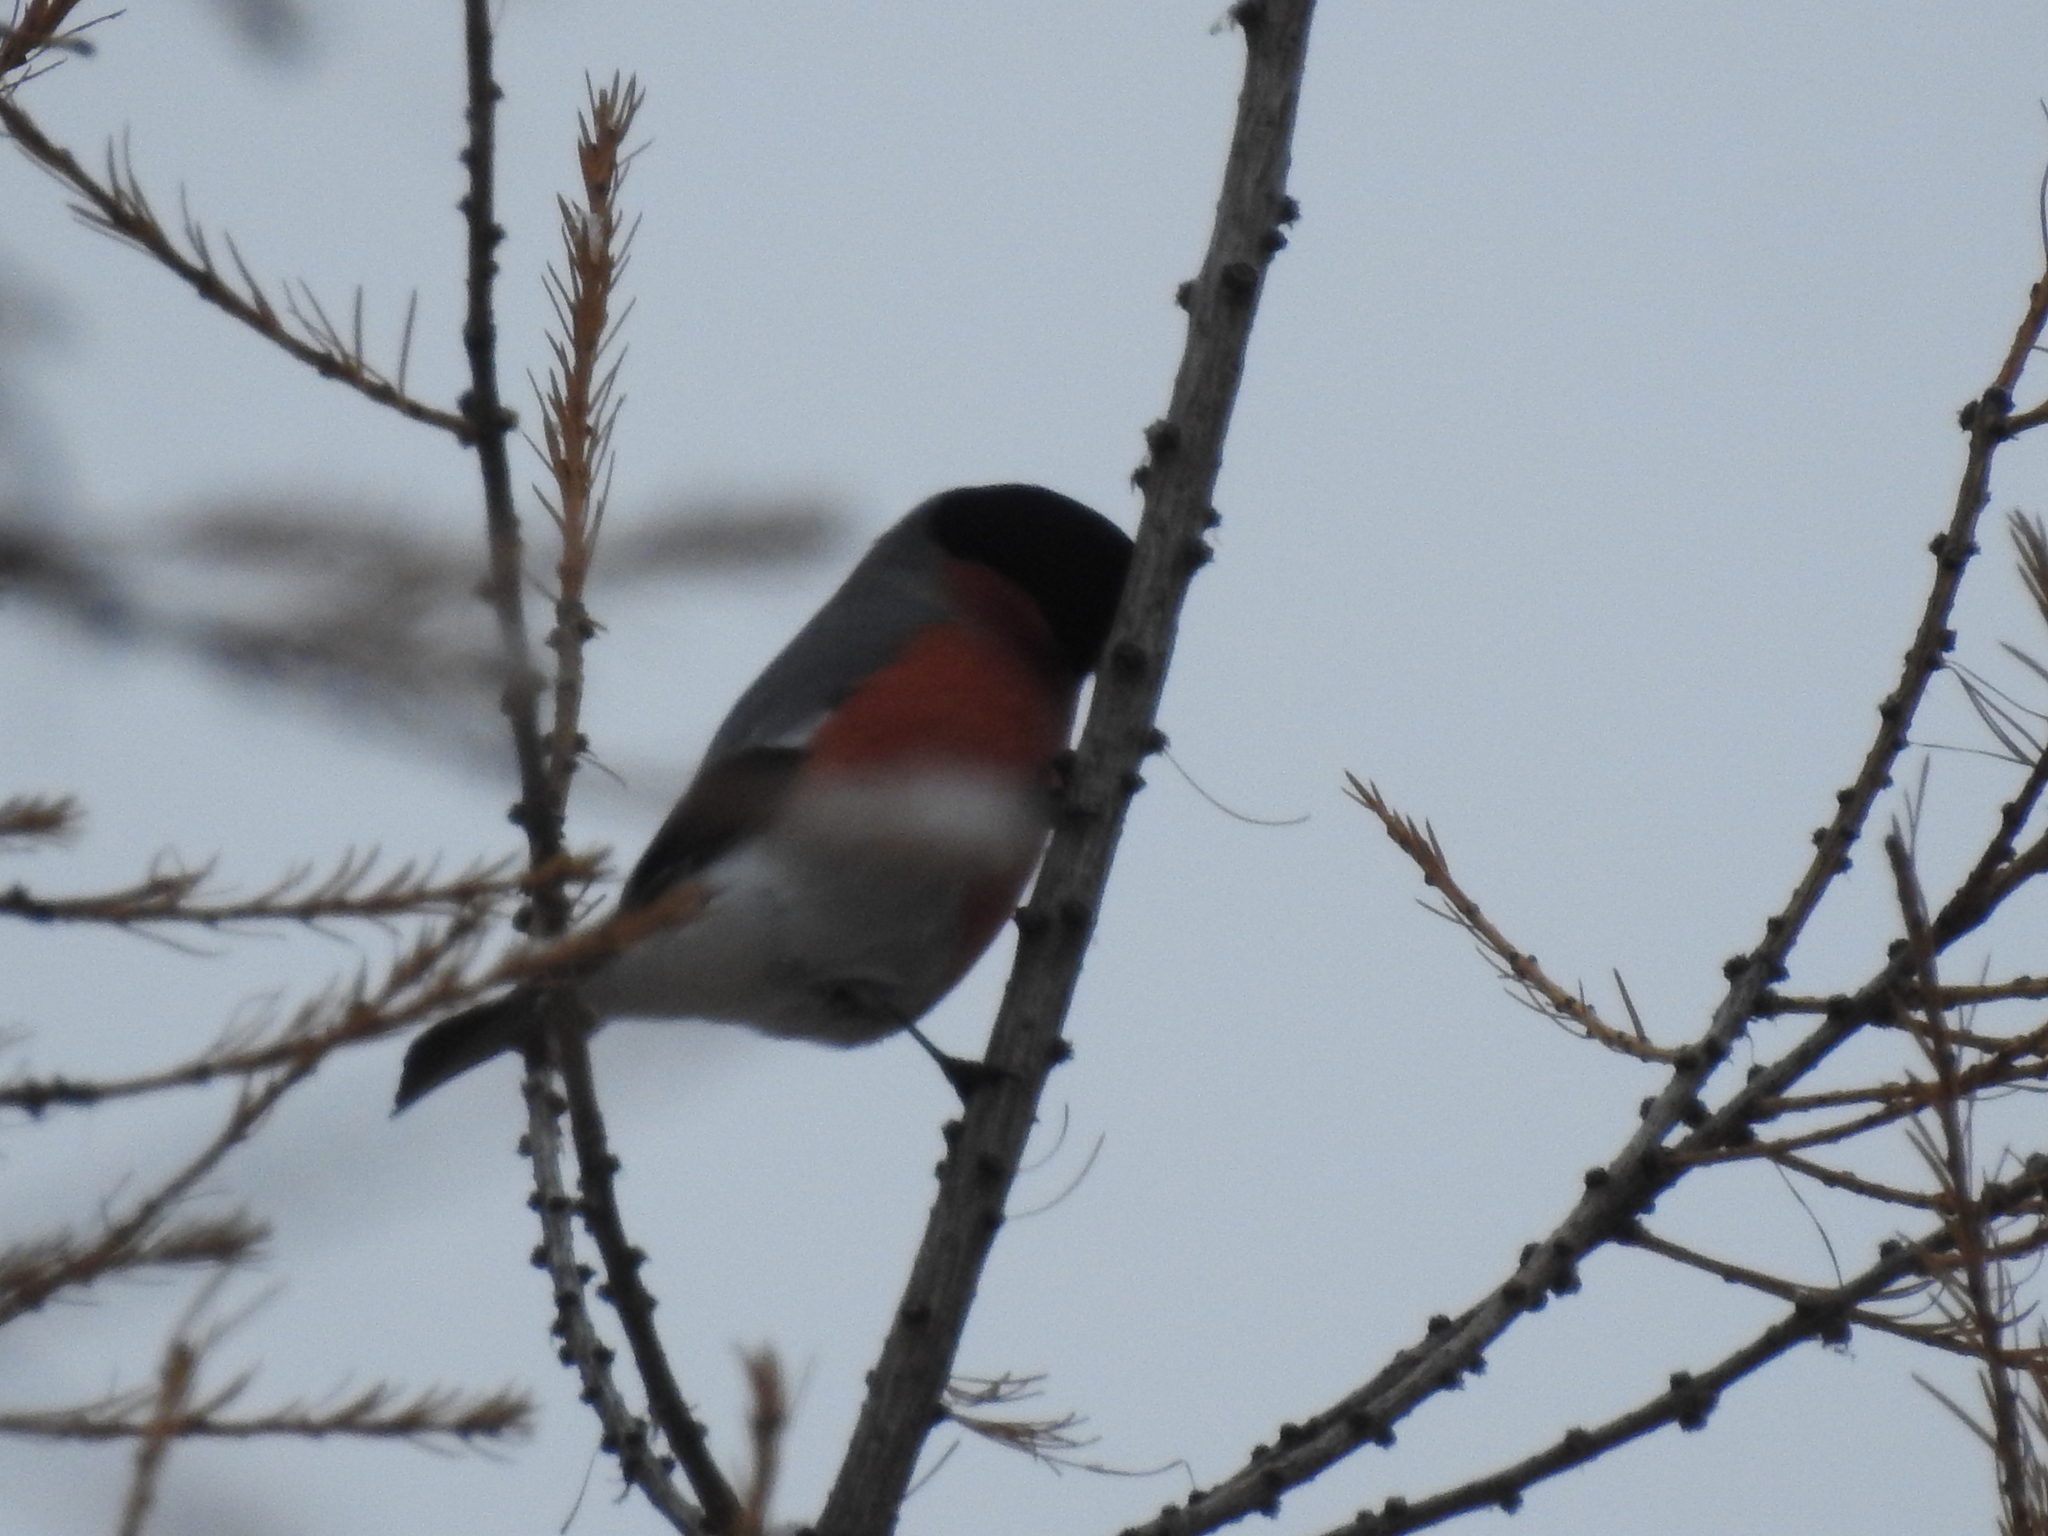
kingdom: Animalia
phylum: Chordata
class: Aves
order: Passeriformes
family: Fringillidae
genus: Pyrrhula
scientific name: Pyrrhula pyrrhula
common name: Eurasian bullfinch
